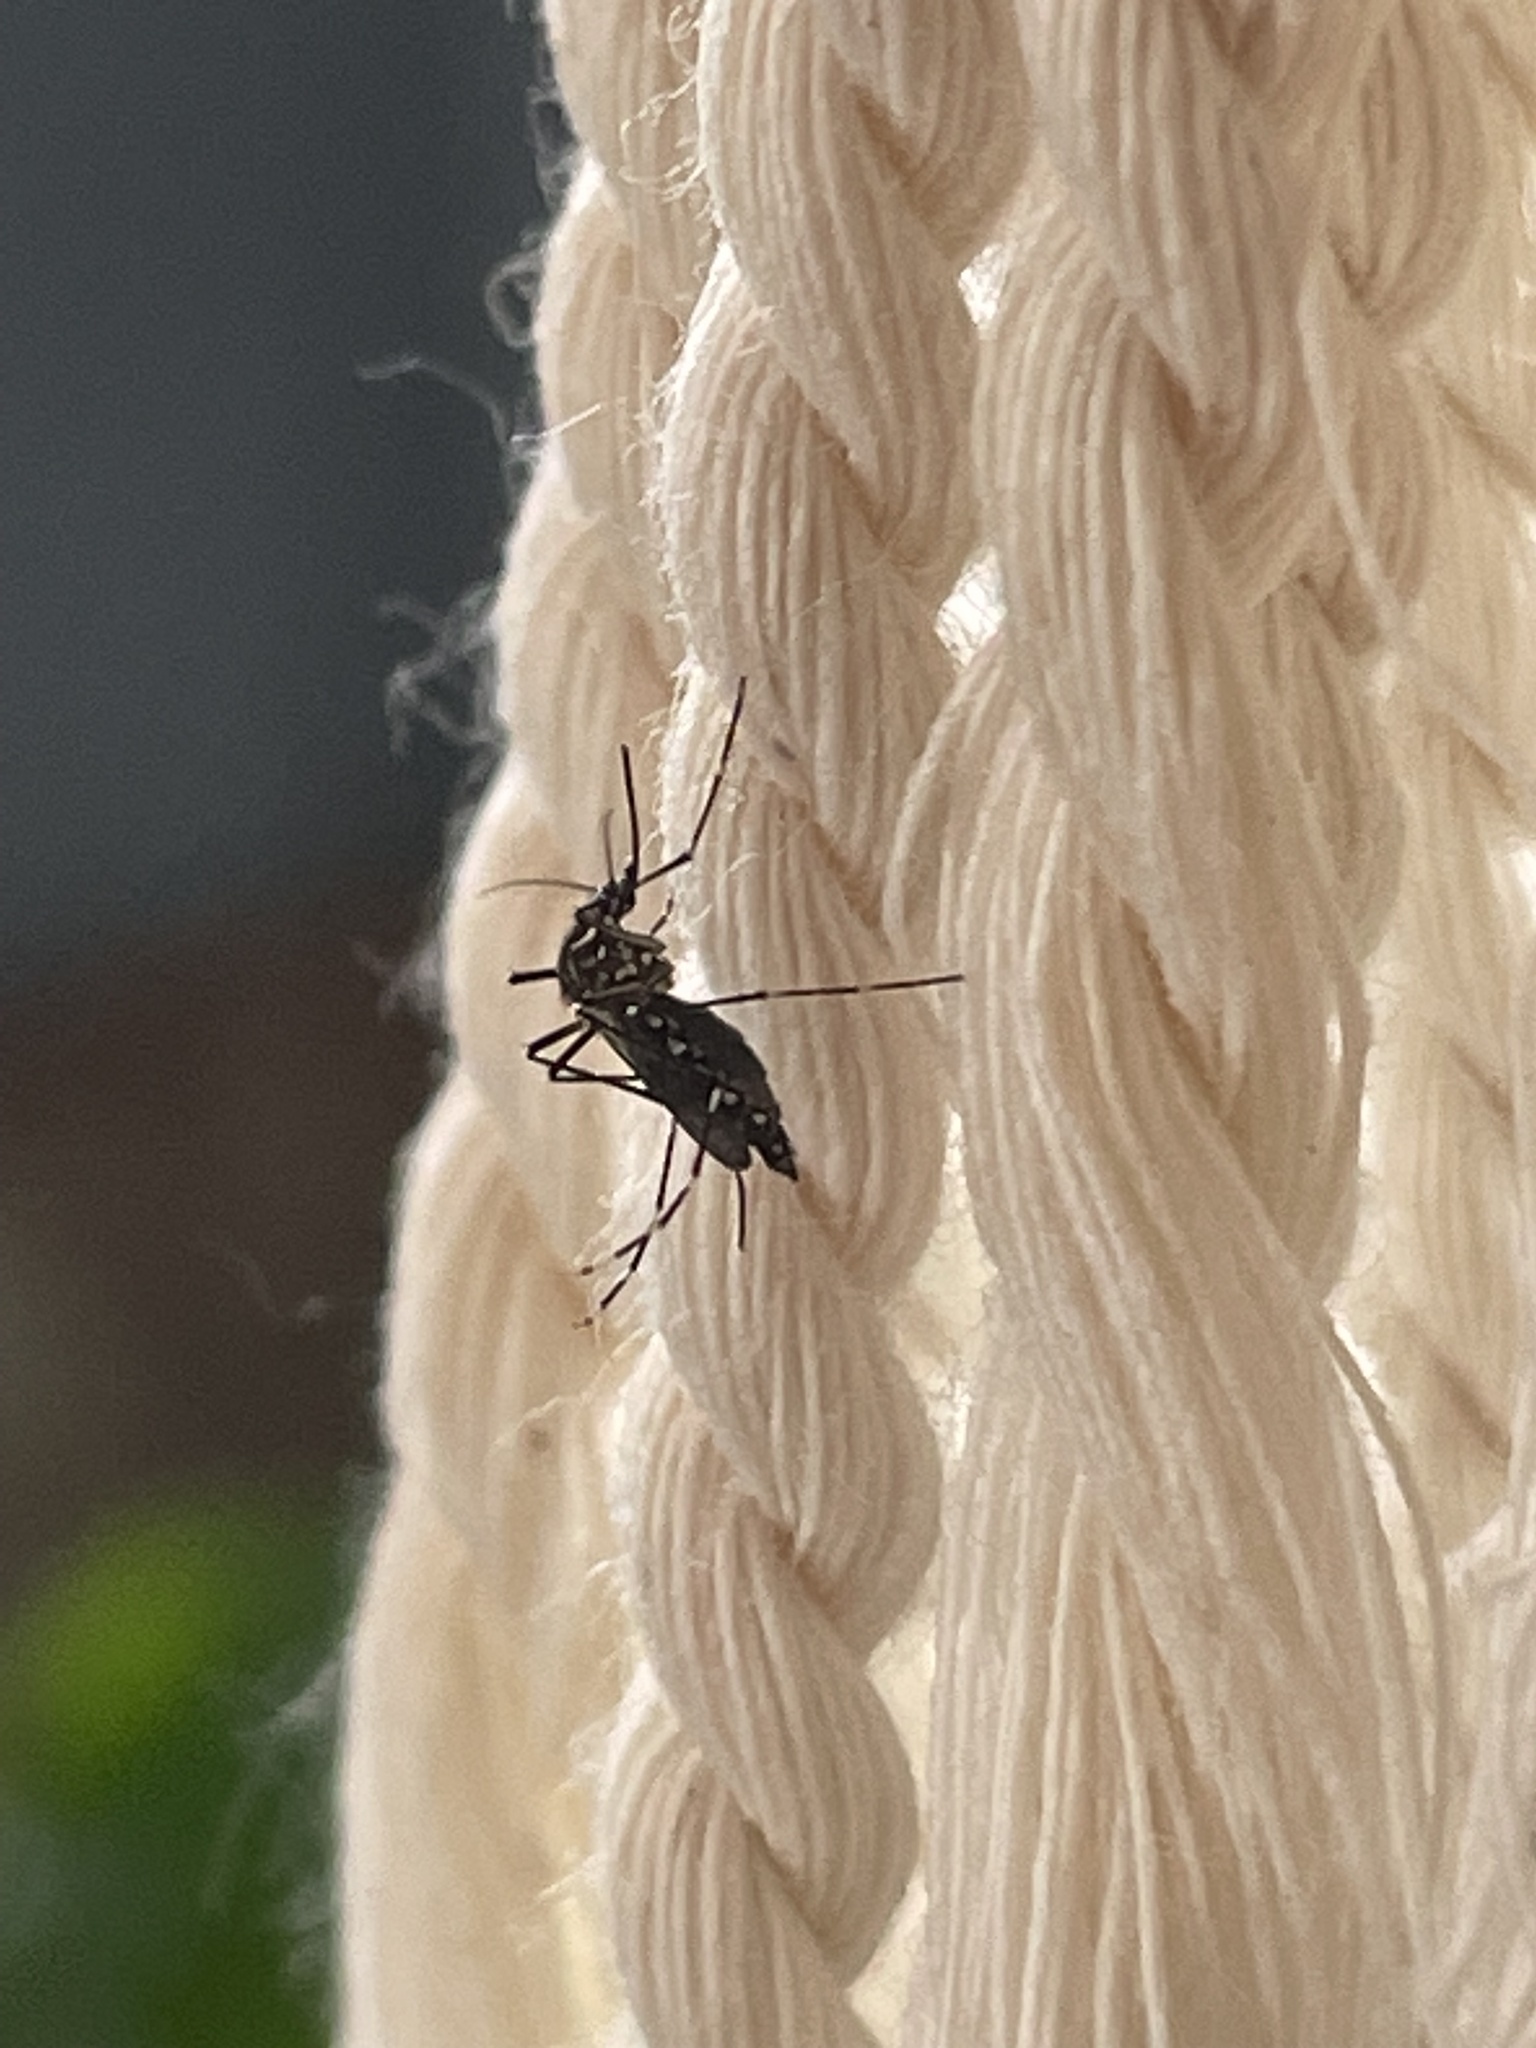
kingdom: Animalia
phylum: Arthropoda
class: Insecta
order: Diptera
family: Culicidae
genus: Aedes
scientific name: Aedes aegypti
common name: Yellow fever mosquito
